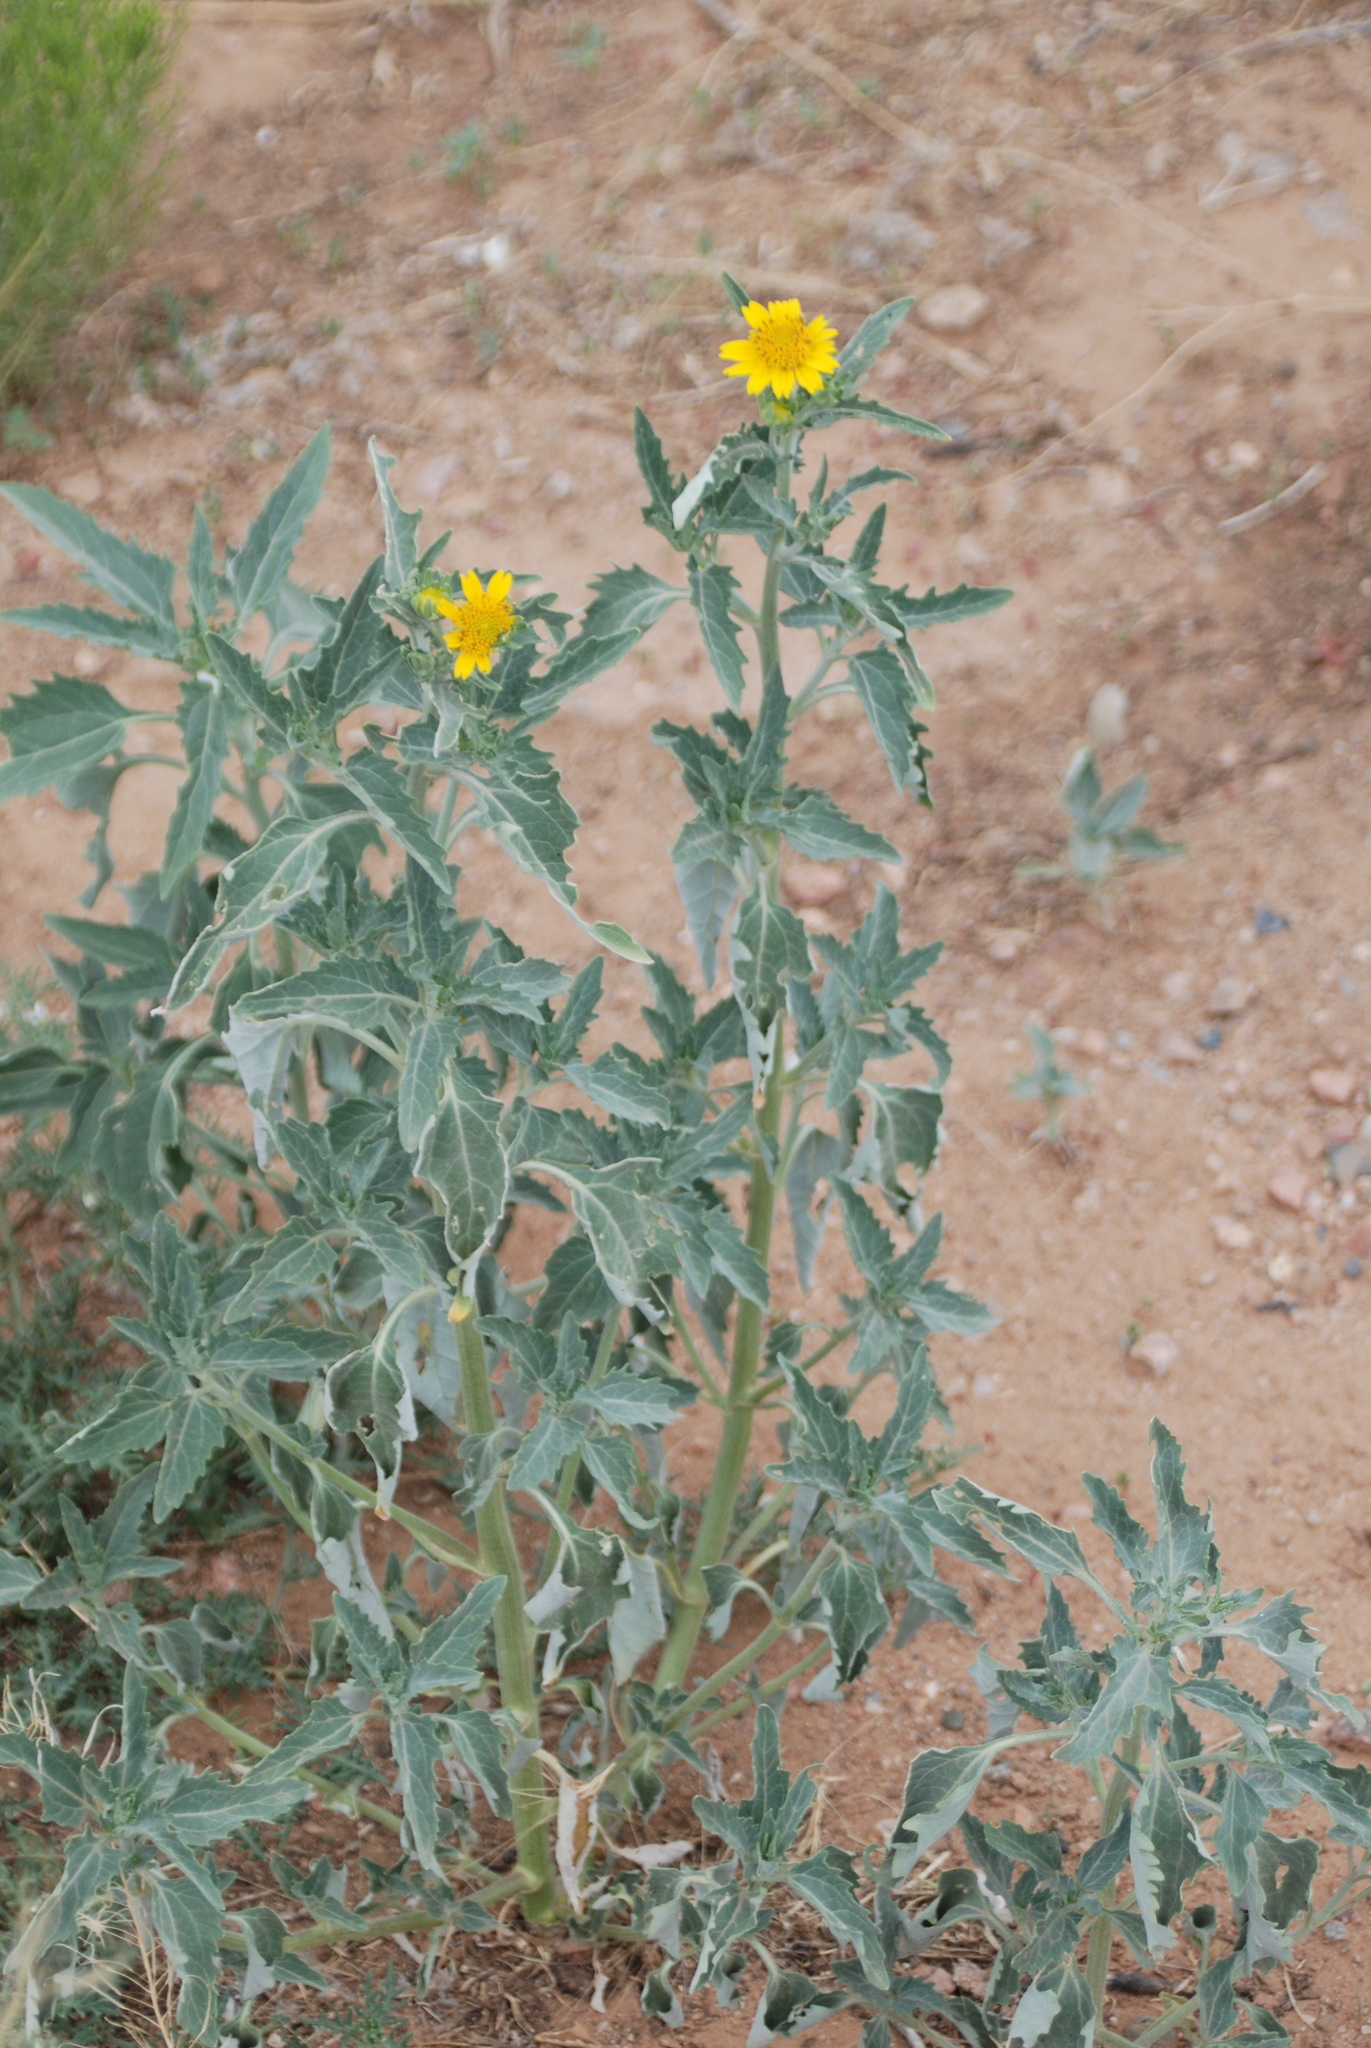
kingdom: Plantae
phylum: Tracheophyta
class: Magnoliopsida
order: Asterales
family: Asteraceae
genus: Verbesina
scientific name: Verbesina encelioides
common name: Golden crownbeard
